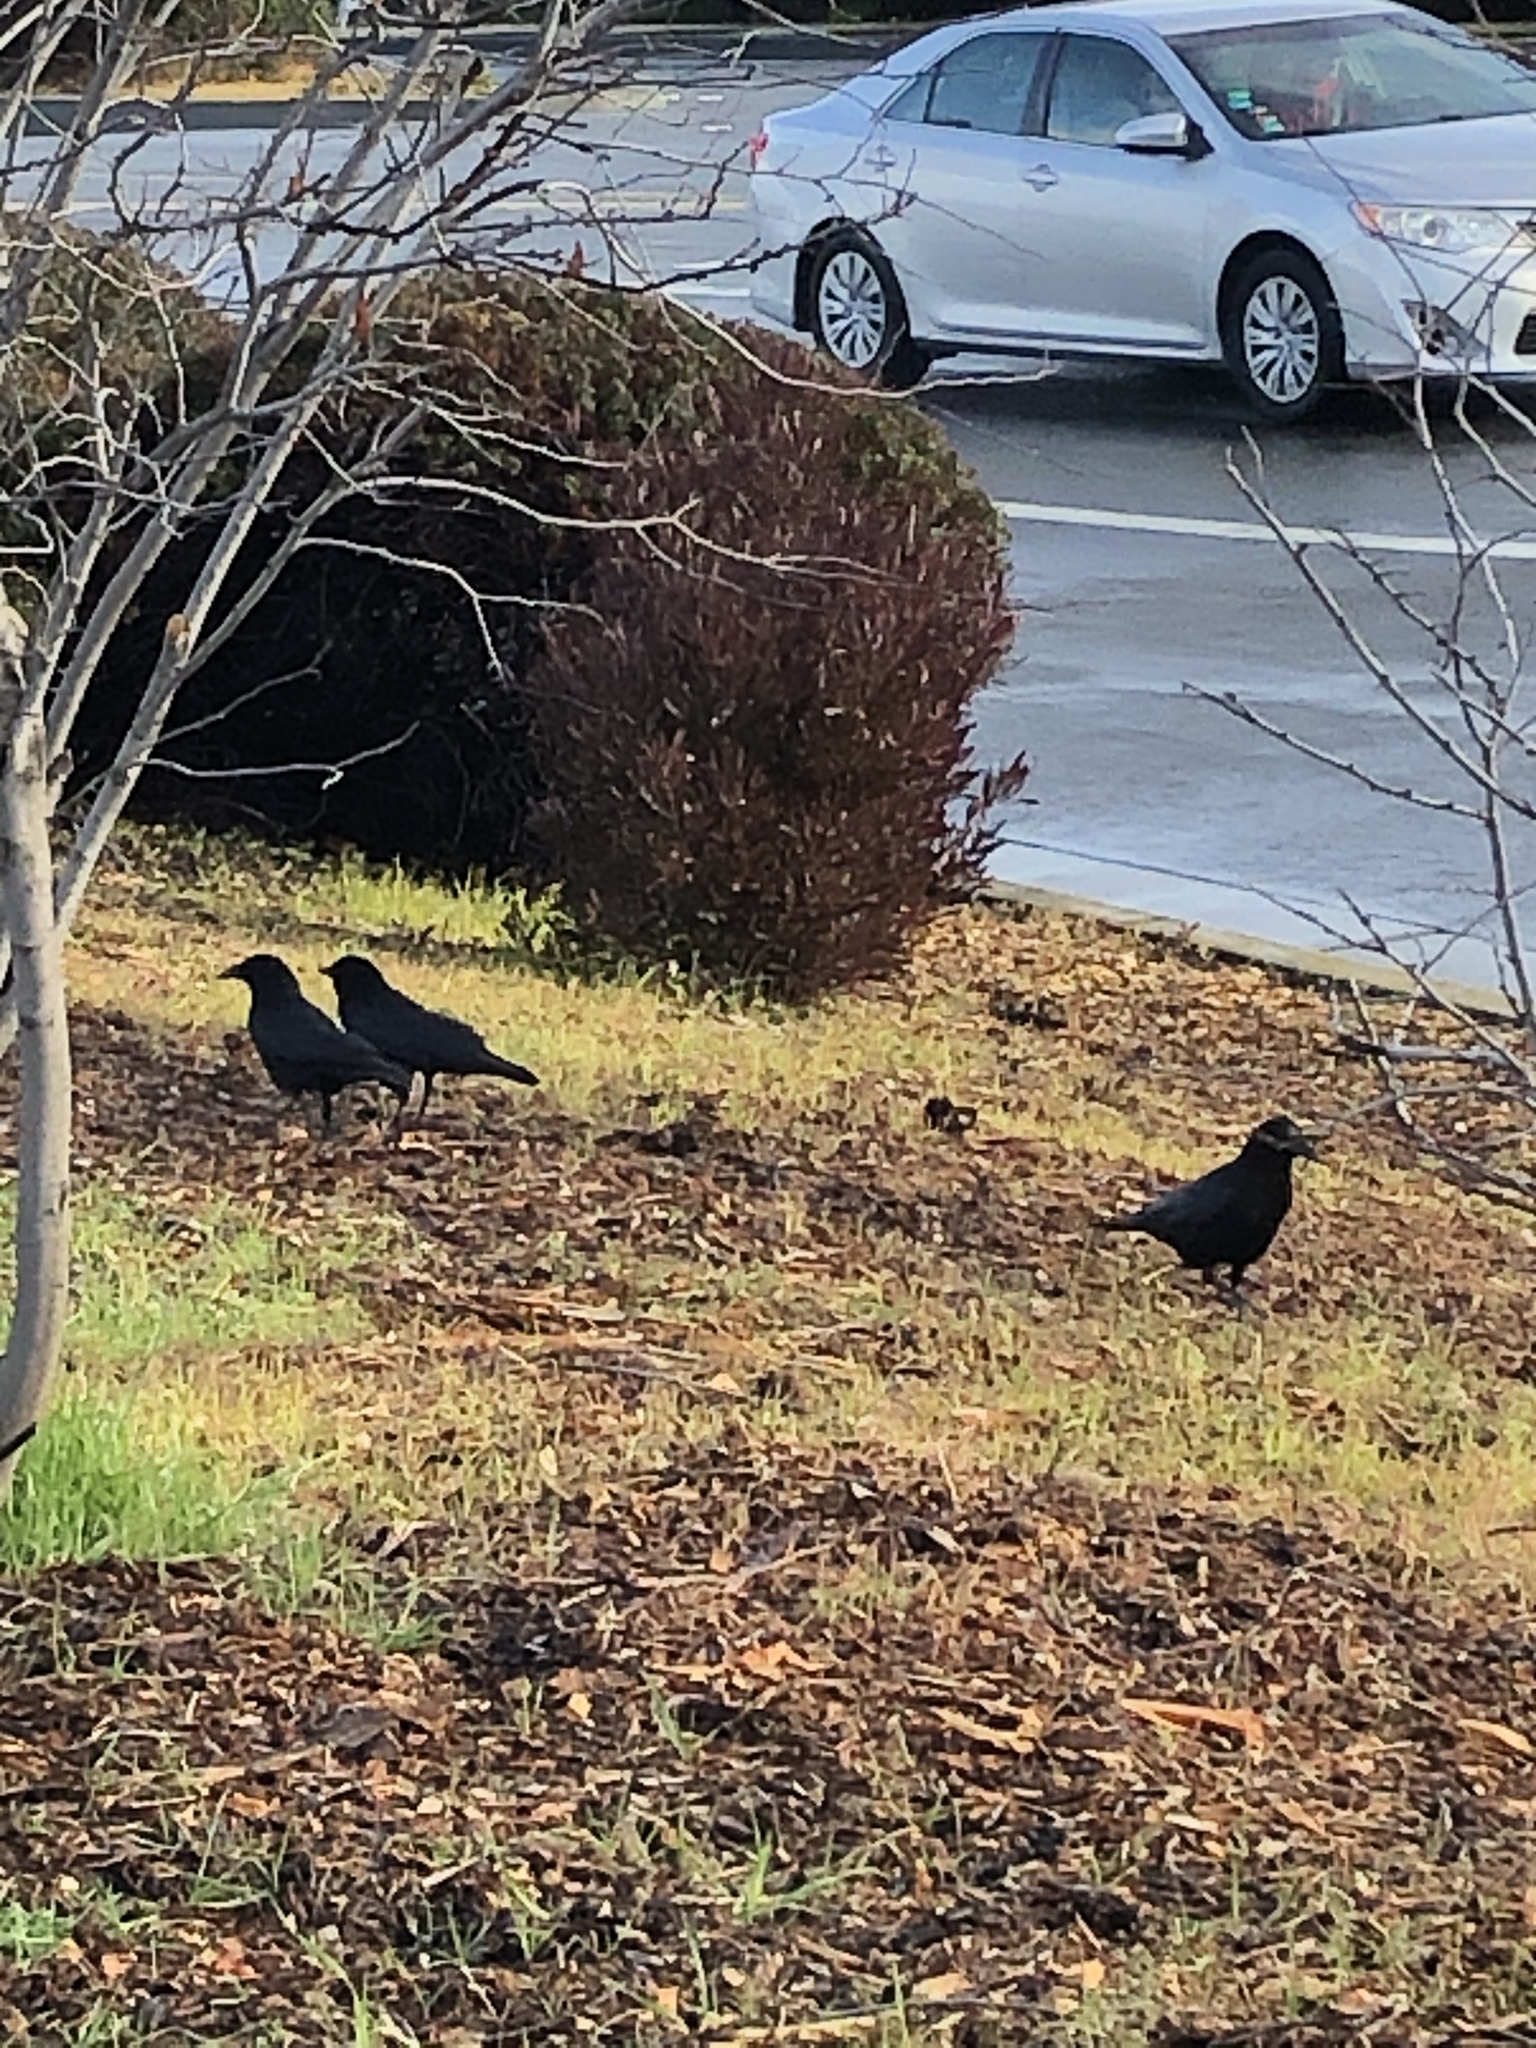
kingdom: Animalia
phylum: Chordata
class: Aves
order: Passeriformes
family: Corvidae
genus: Corvus
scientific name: Corvus brachyrhynchos
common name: American crow
